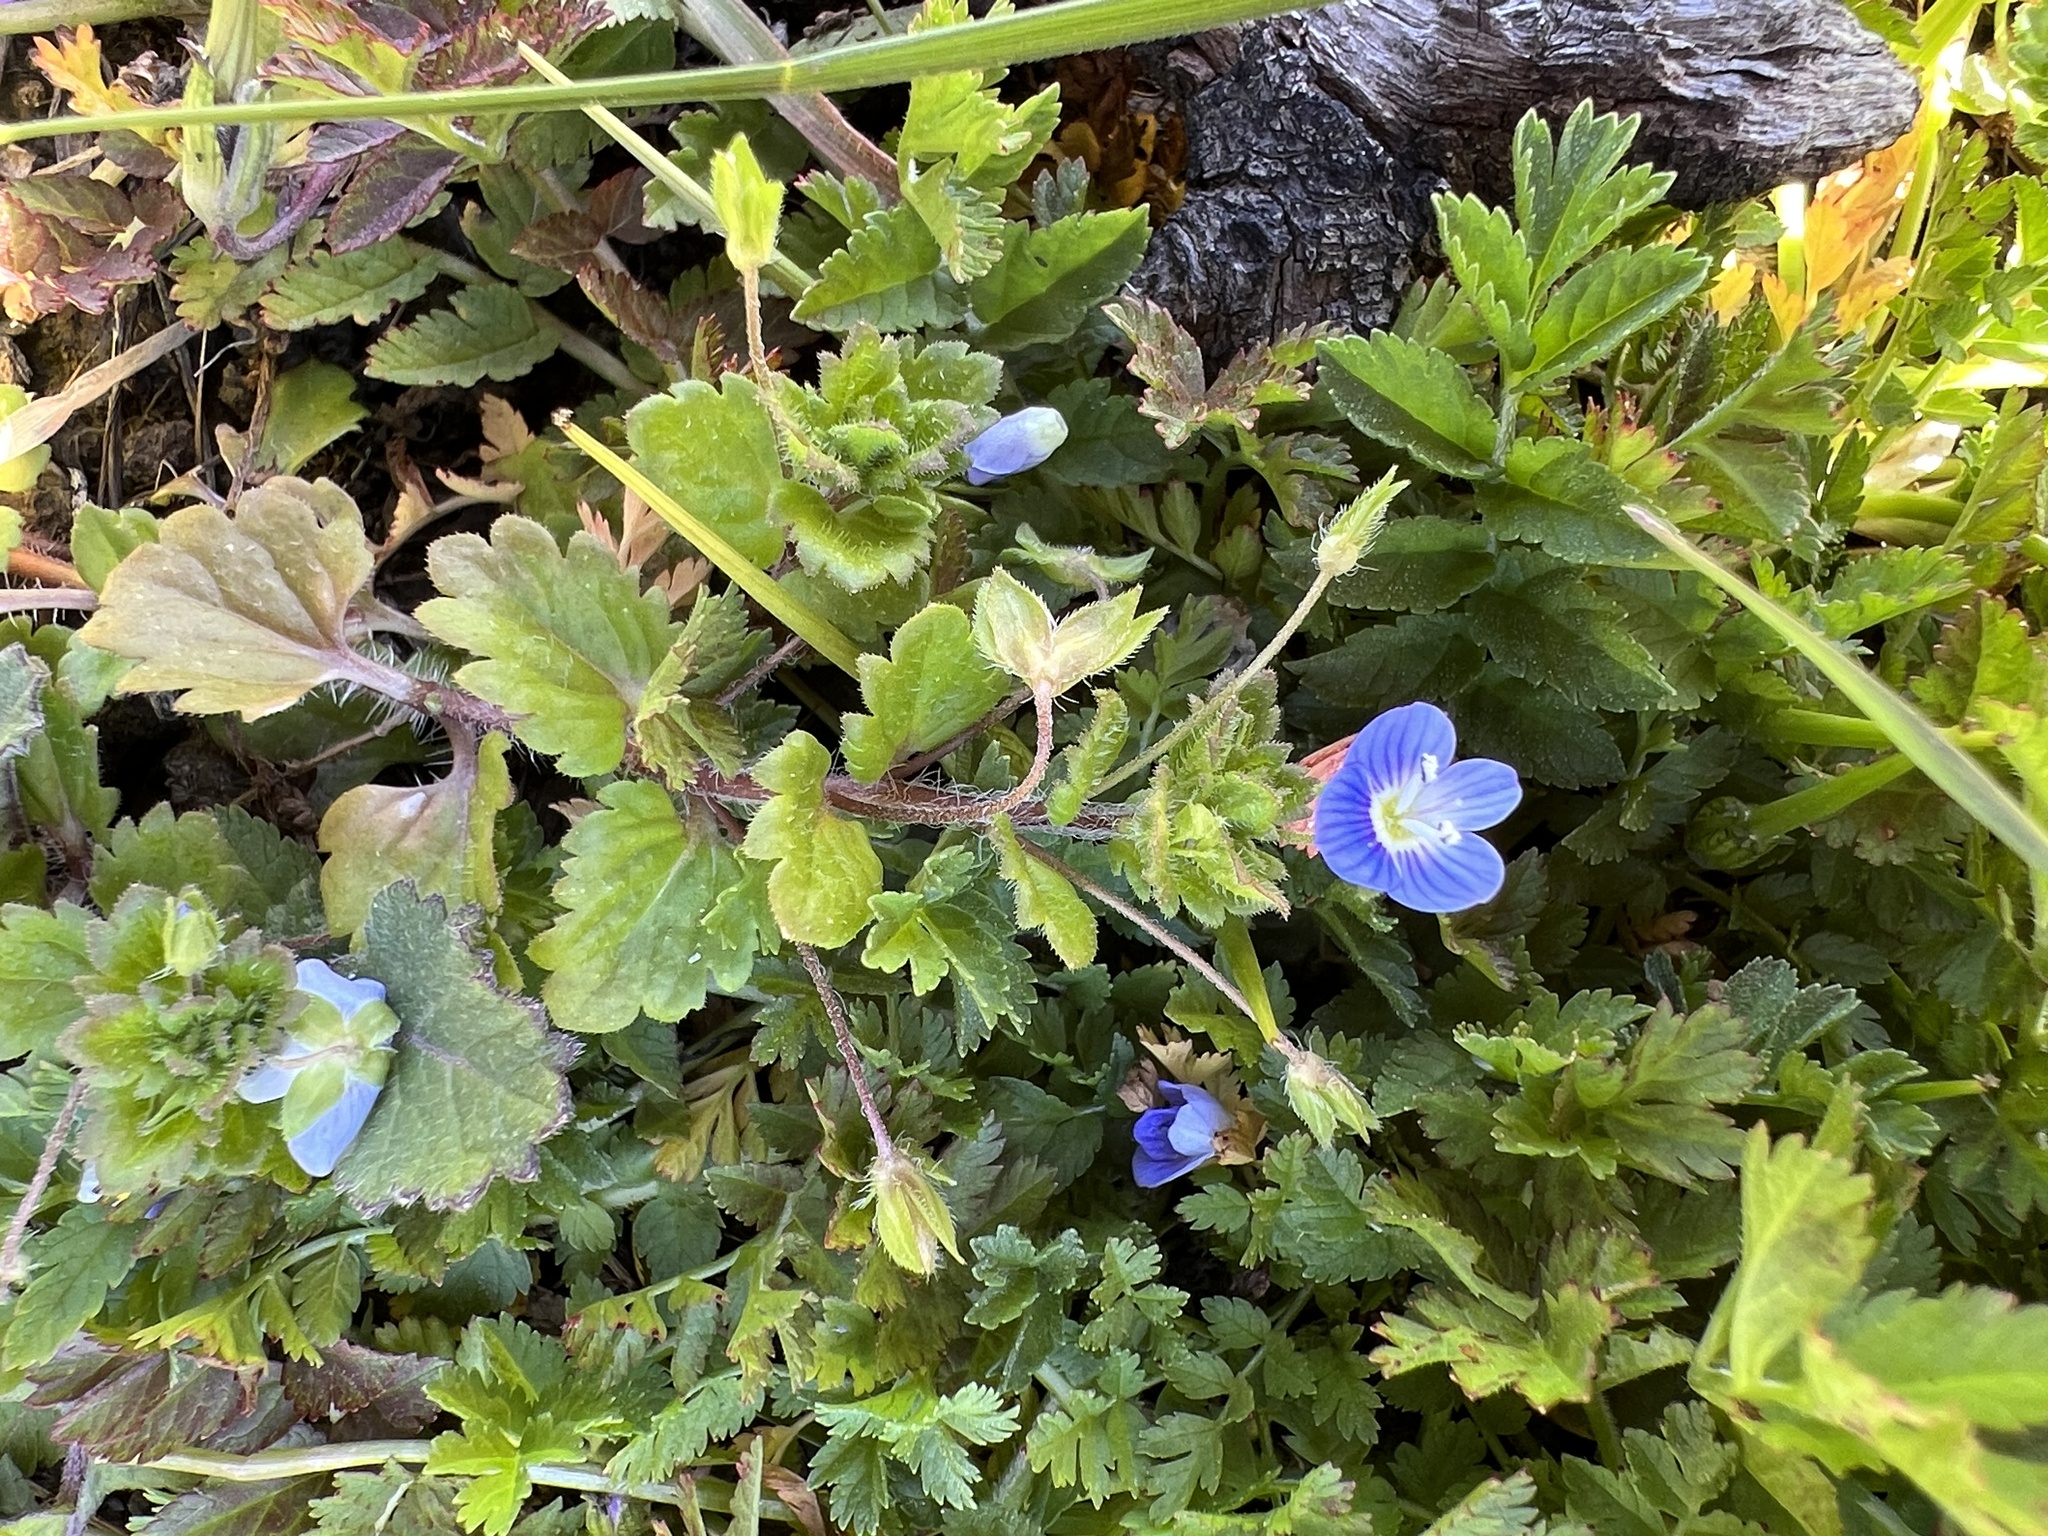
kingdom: Plantae
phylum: Tracheophyta
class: Magnoliopsida
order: Lamiales
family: Plantaginaceae
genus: Veronica
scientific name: Veronica persica
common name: Common field-speedwell
